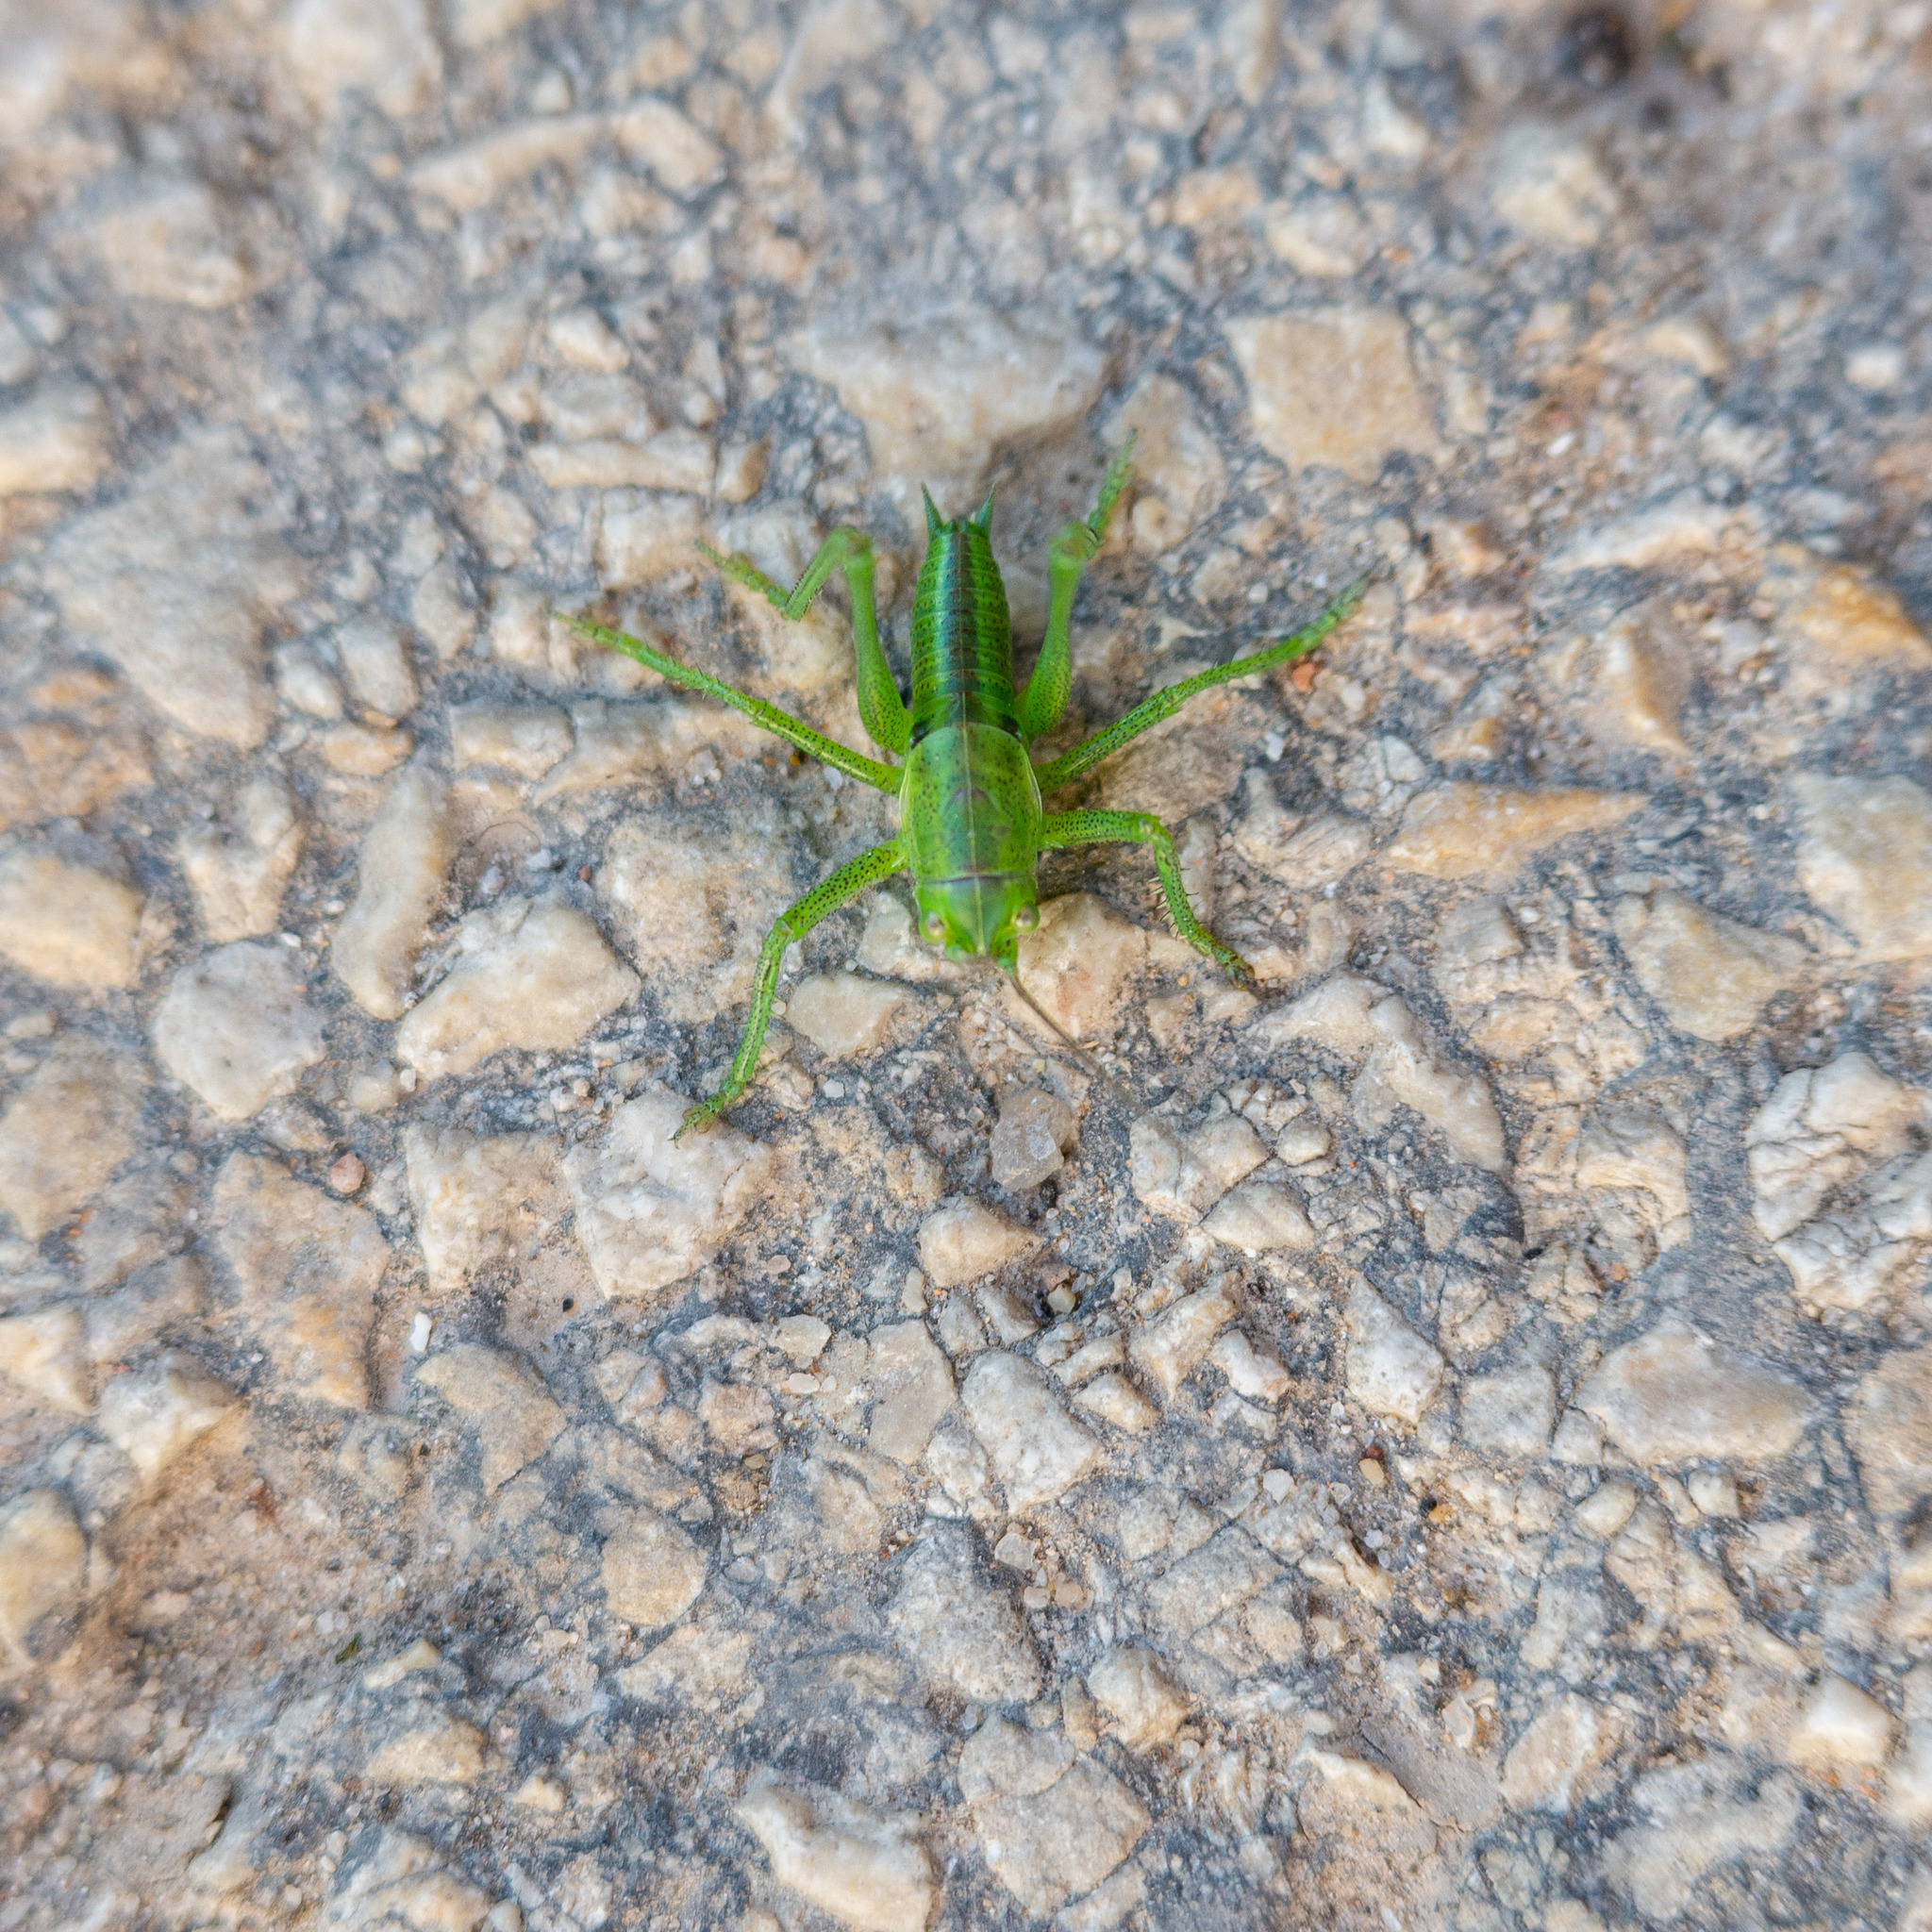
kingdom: Animalia
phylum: Arthropoda
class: Insecta
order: Orthoptera
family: Tettigoniidae
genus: Tettigonia
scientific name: Tettigonia viridissima
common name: Great green bush-cricket
